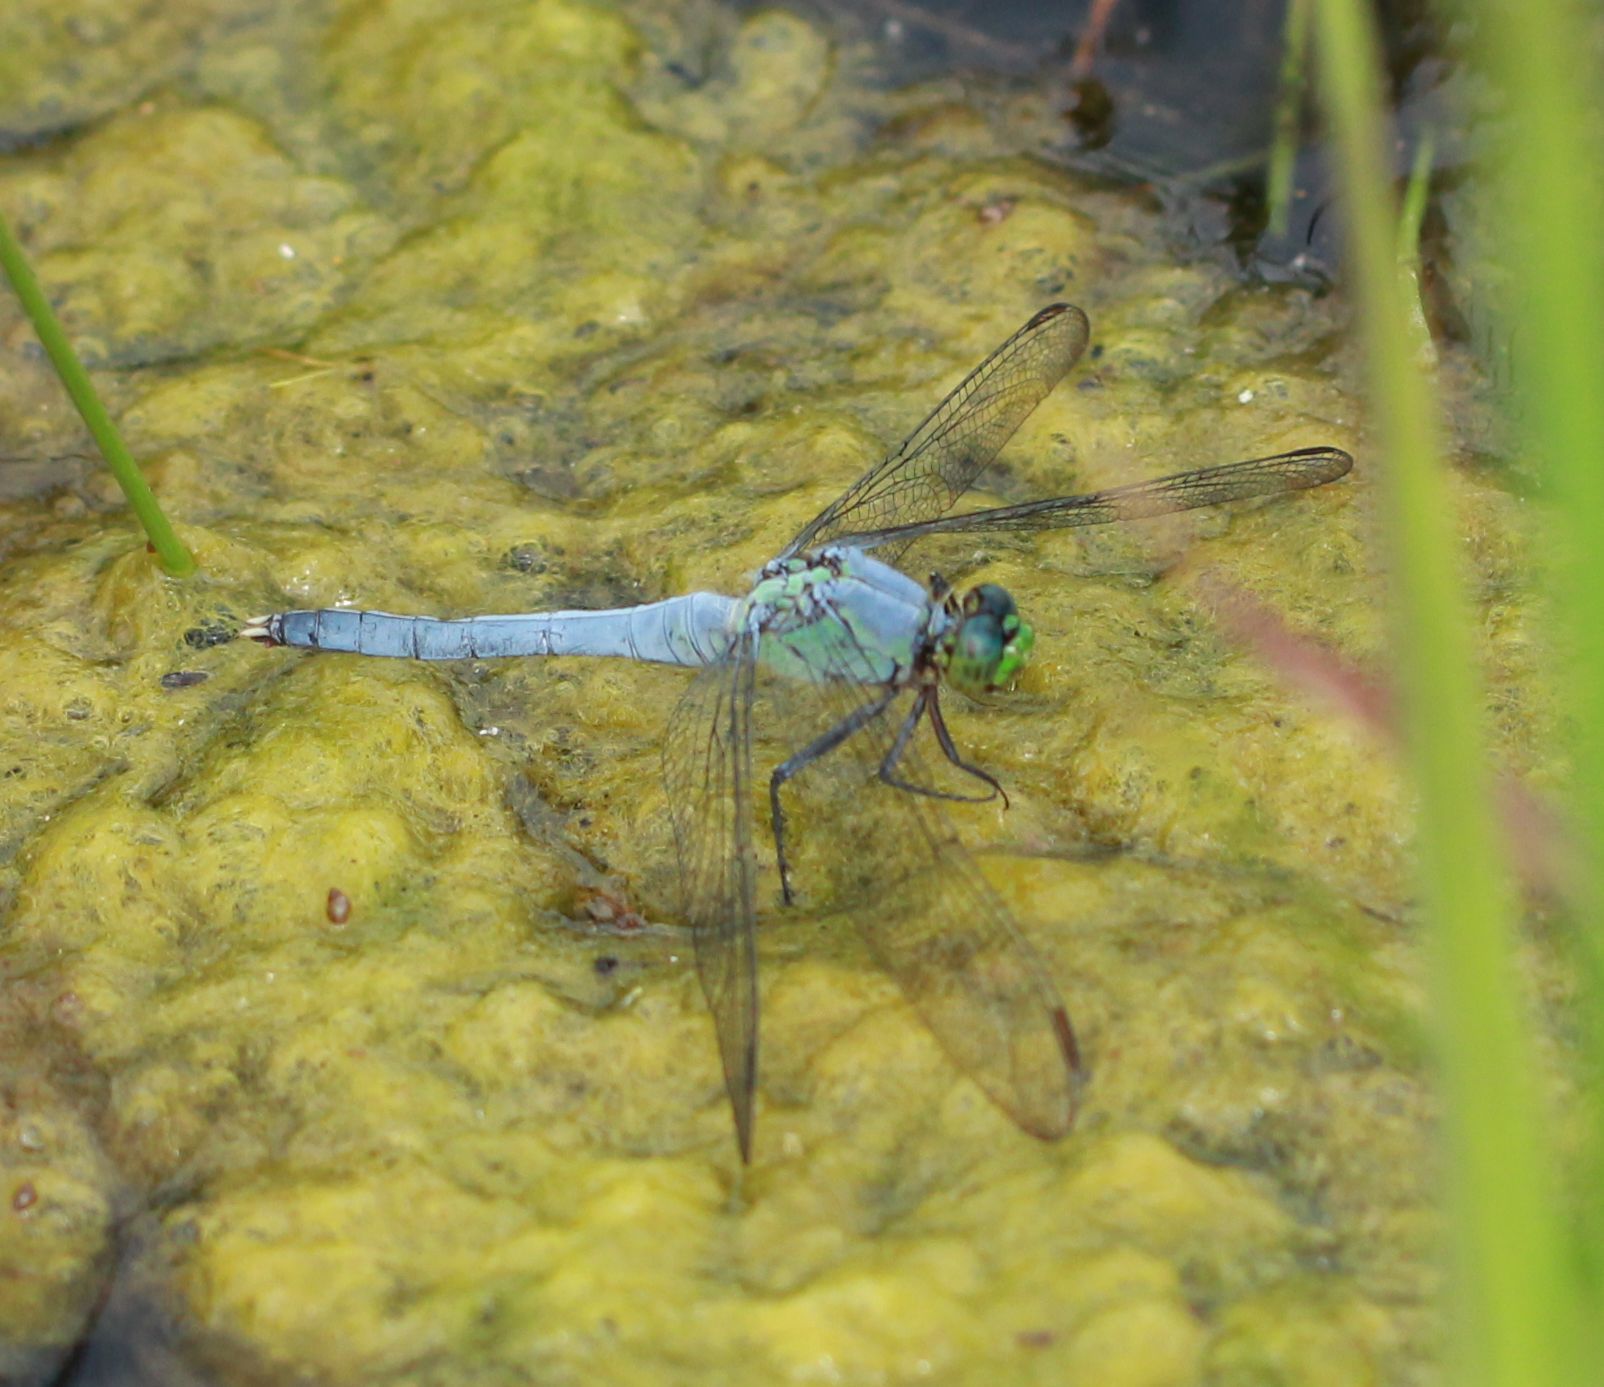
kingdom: Animalia
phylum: Arthropoda
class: Insecta
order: Odonata
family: Libellulidae
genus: Erythemis
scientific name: Erythemis simplicicollis
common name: Eastern pondhawk
